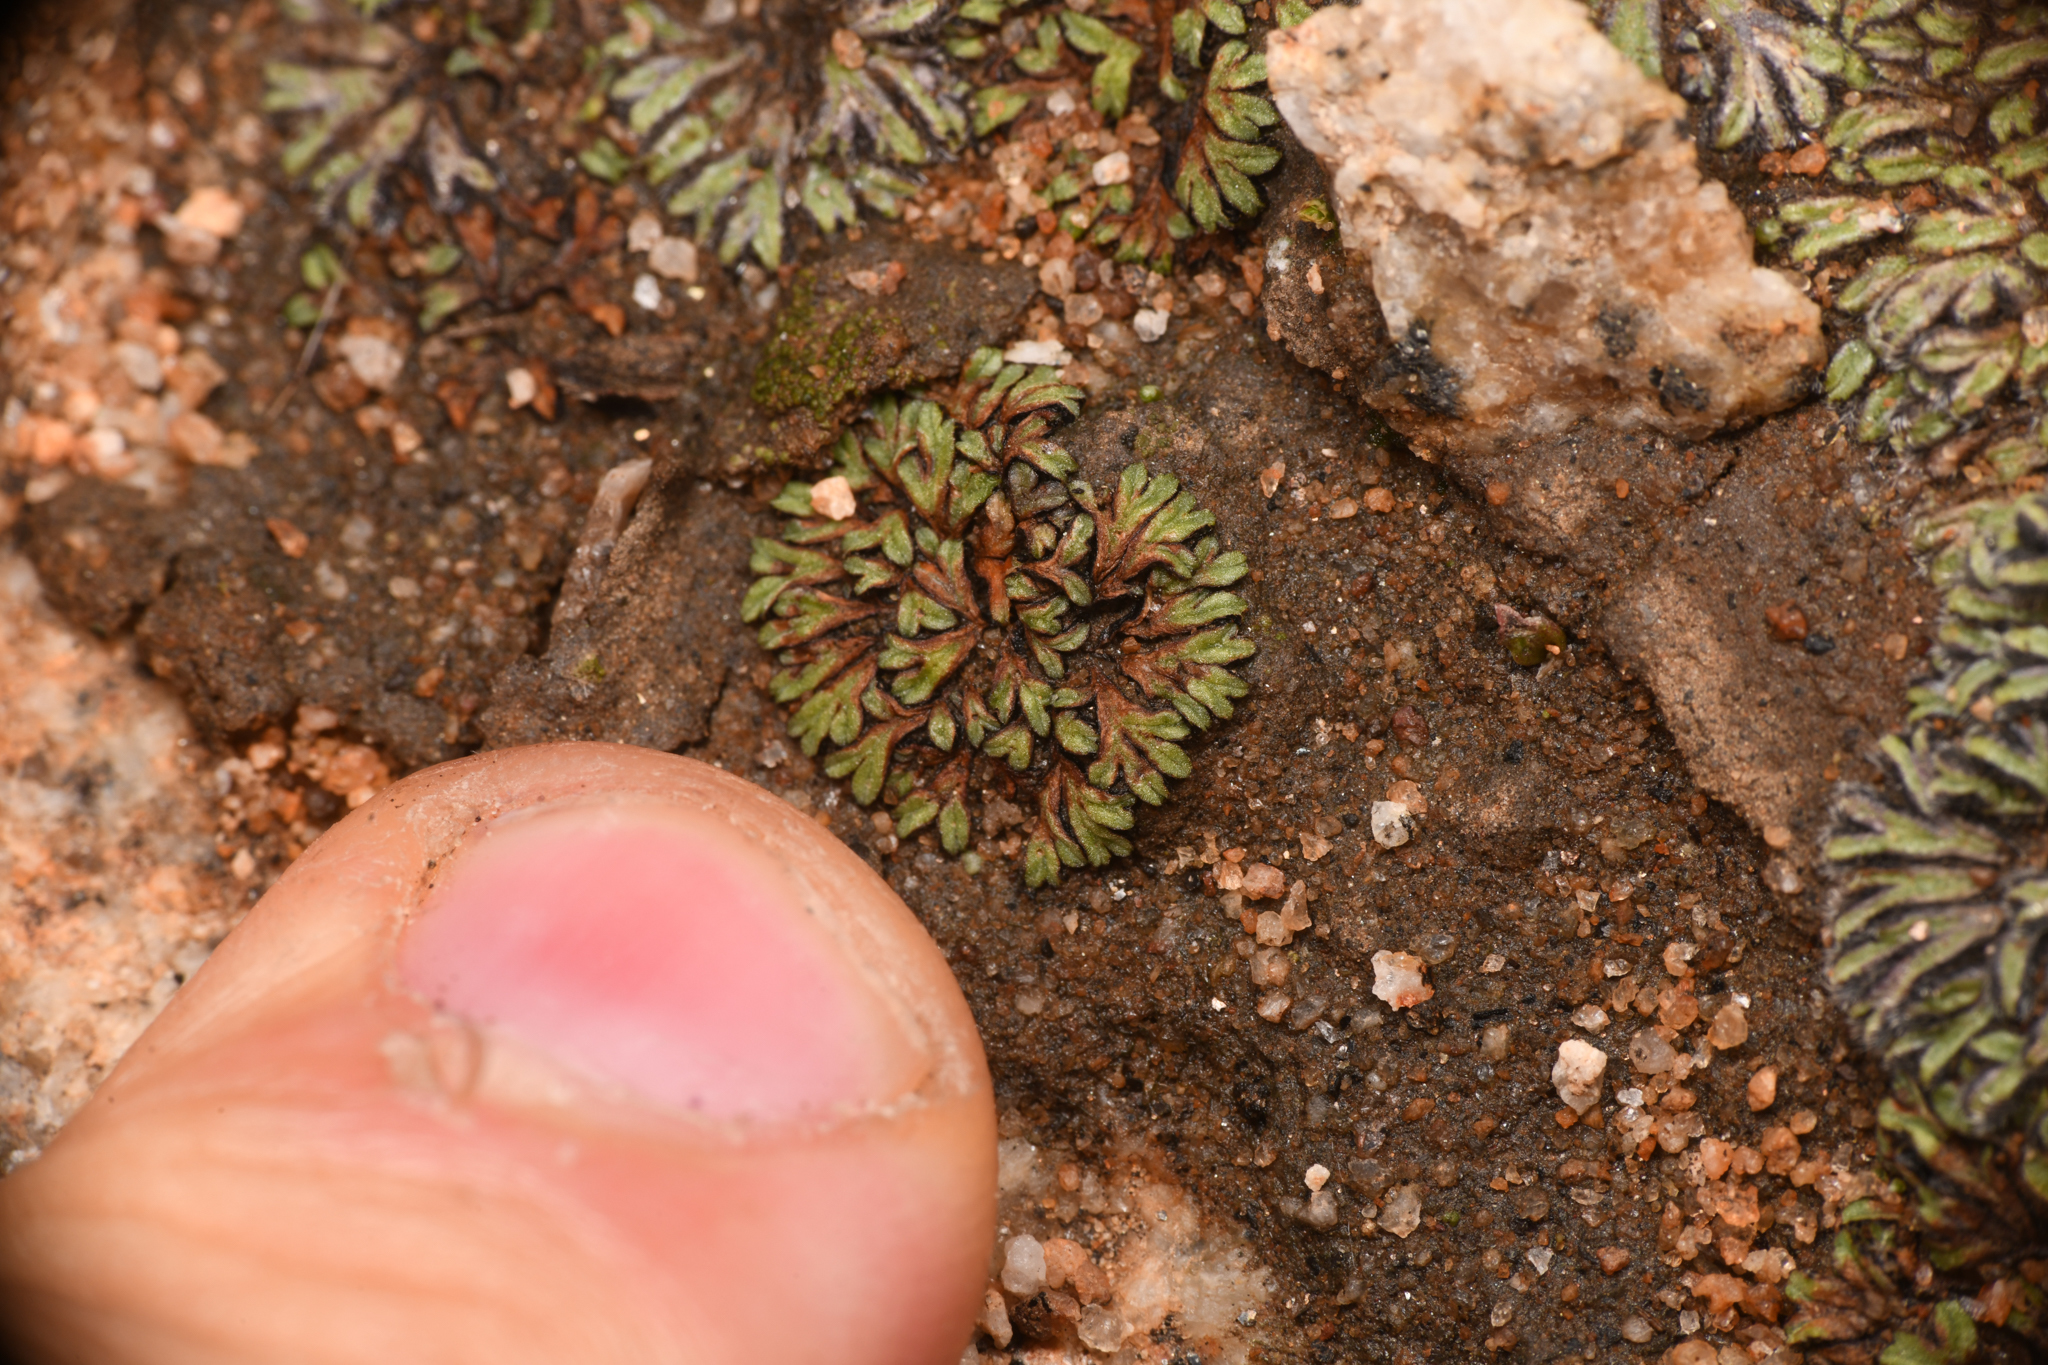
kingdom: Plantae
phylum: Marchantiophyta
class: Marchantiopsida
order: Marchantiales
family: Ricciaceae
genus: Riccia
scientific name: Riccia nigrella
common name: Black crystalwort
